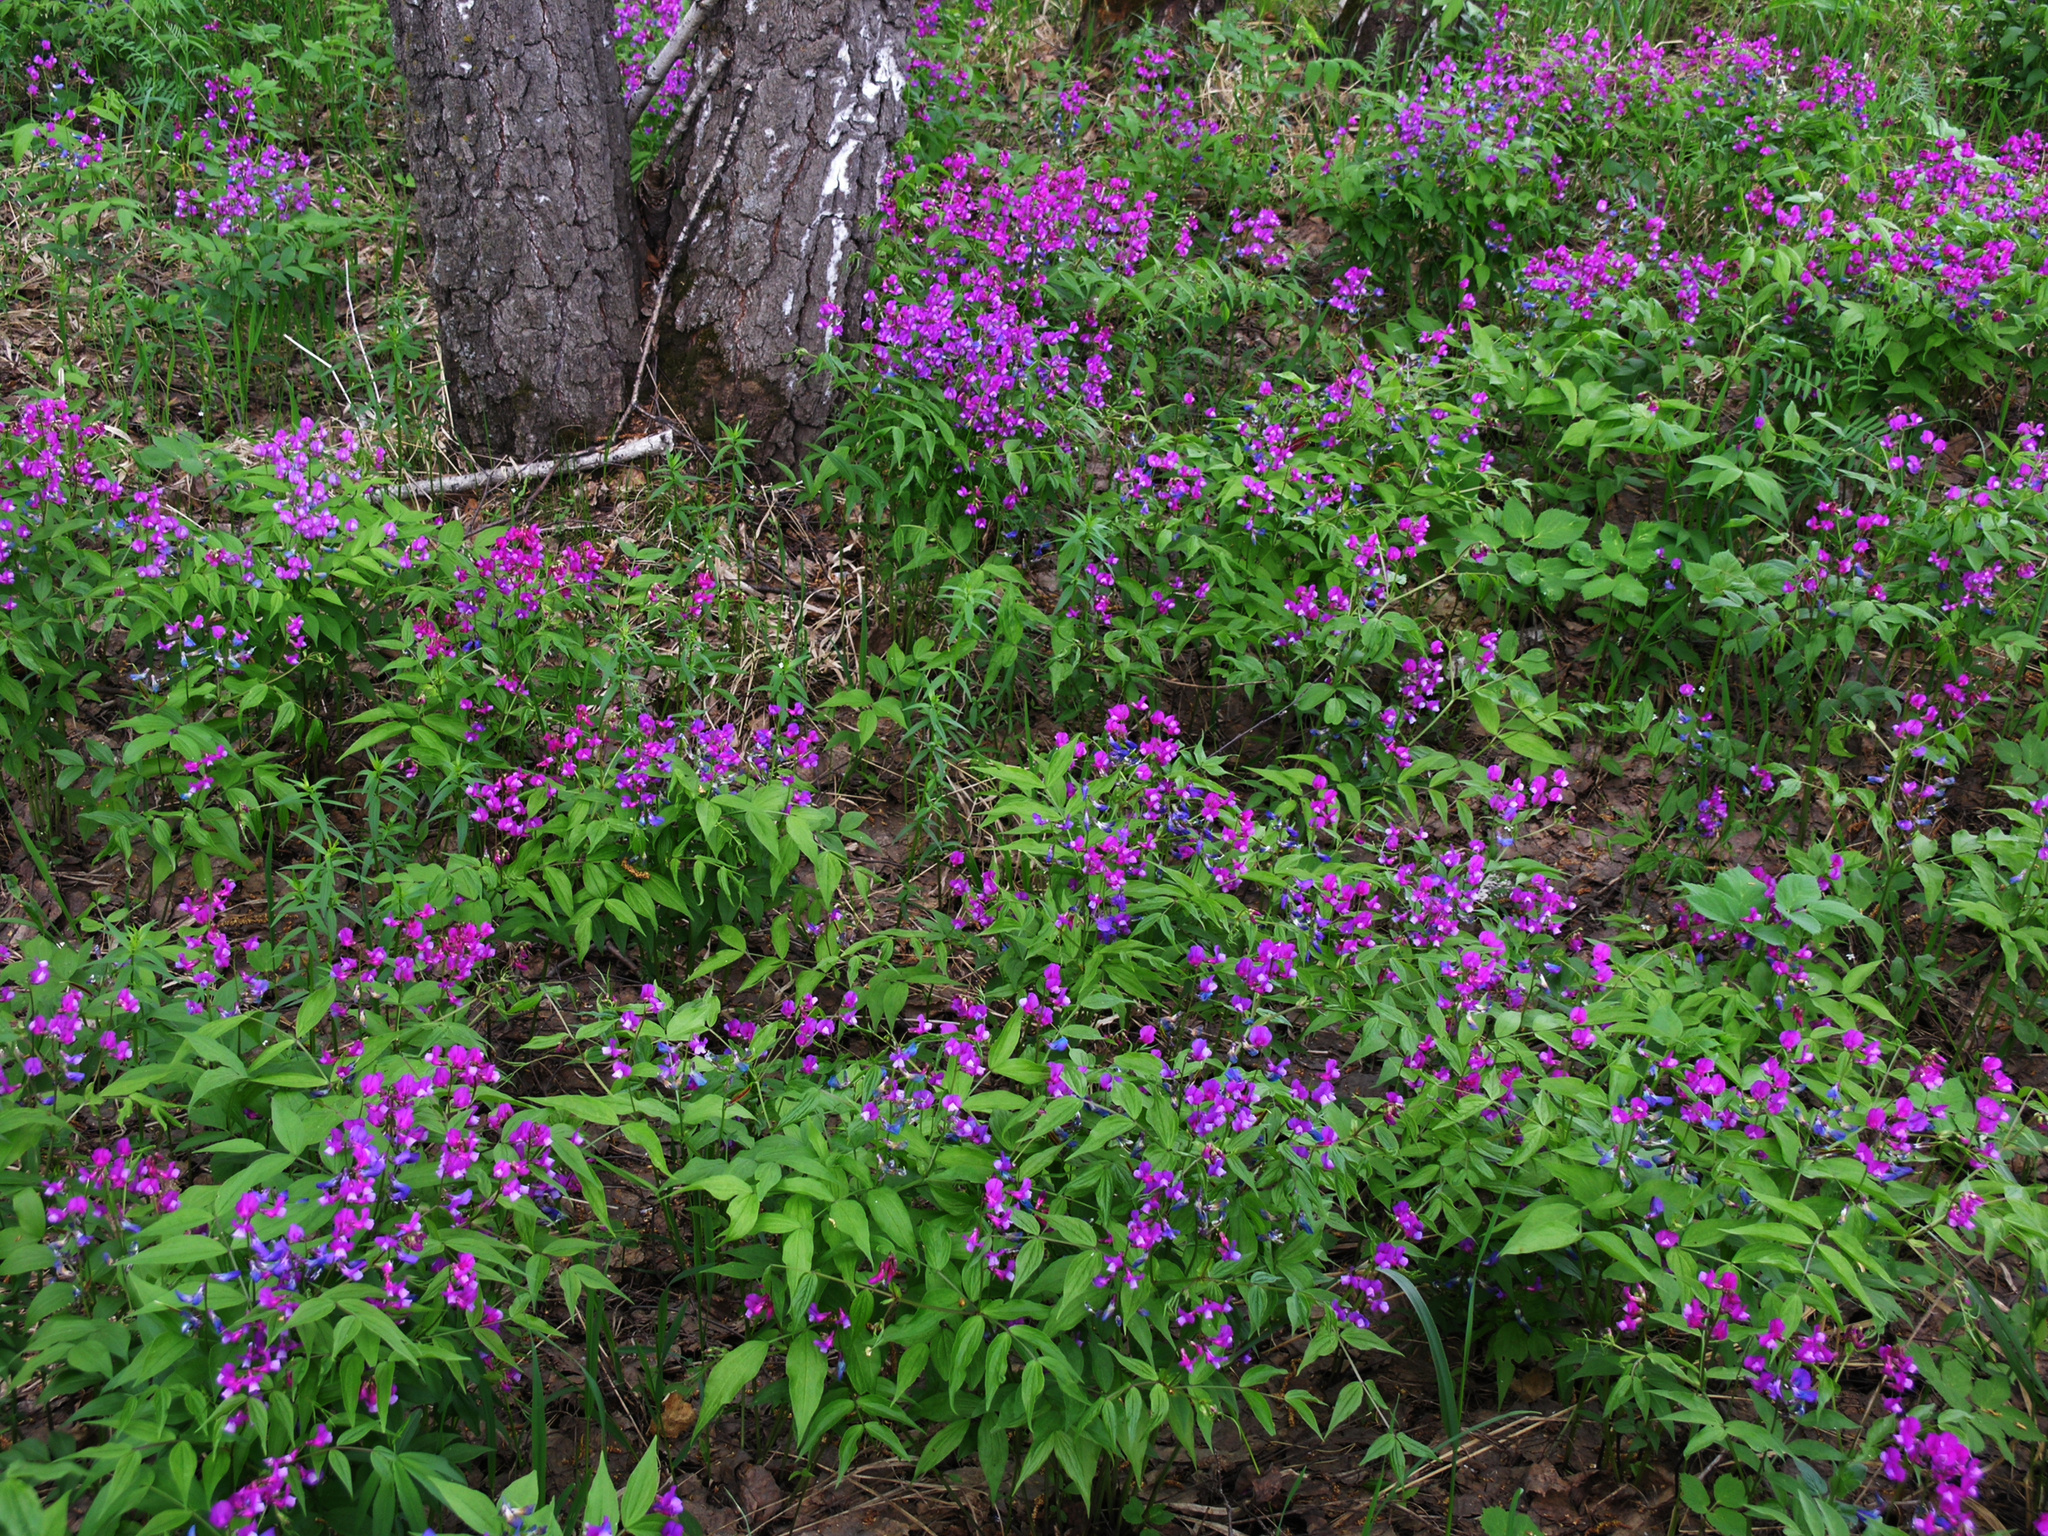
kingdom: Plantae
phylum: Tracheophyta
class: Magnoliopsida
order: Fabales
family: Fabaceae
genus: Lathyrus
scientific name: Lathyrus vernus
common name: Spring pea
